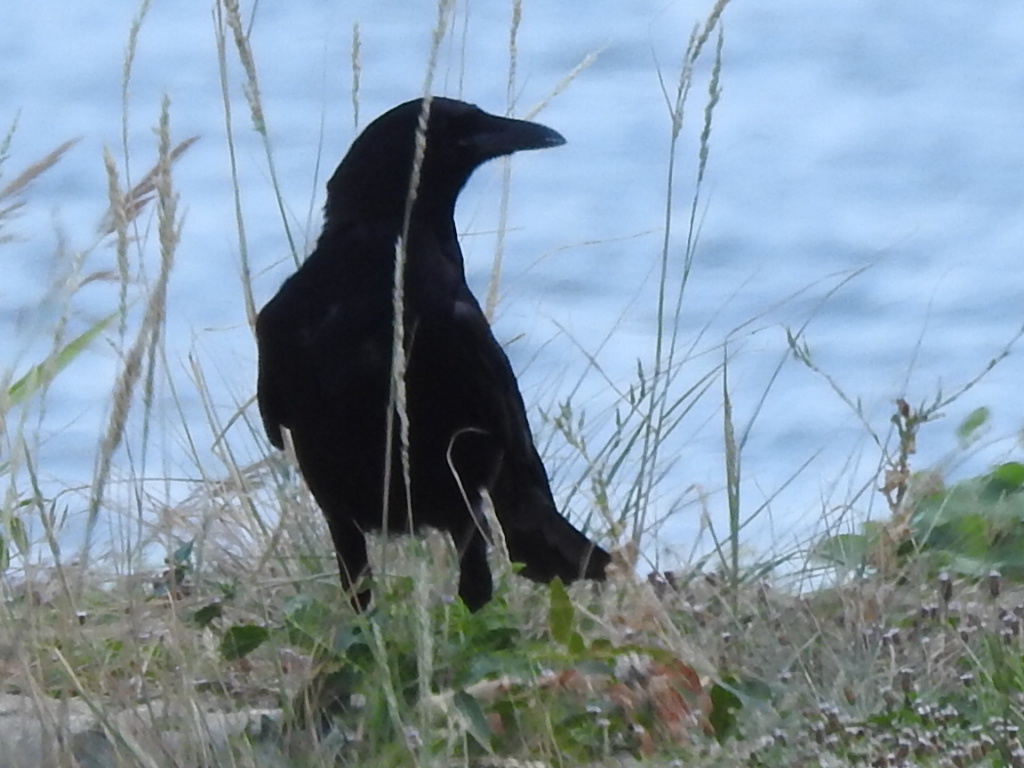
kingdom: Animalia
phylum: Chordata
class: Aves
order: Passeriformes
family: Corvidae
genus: Corvus
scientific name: Corvus brachyrhynchos
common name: American crow
